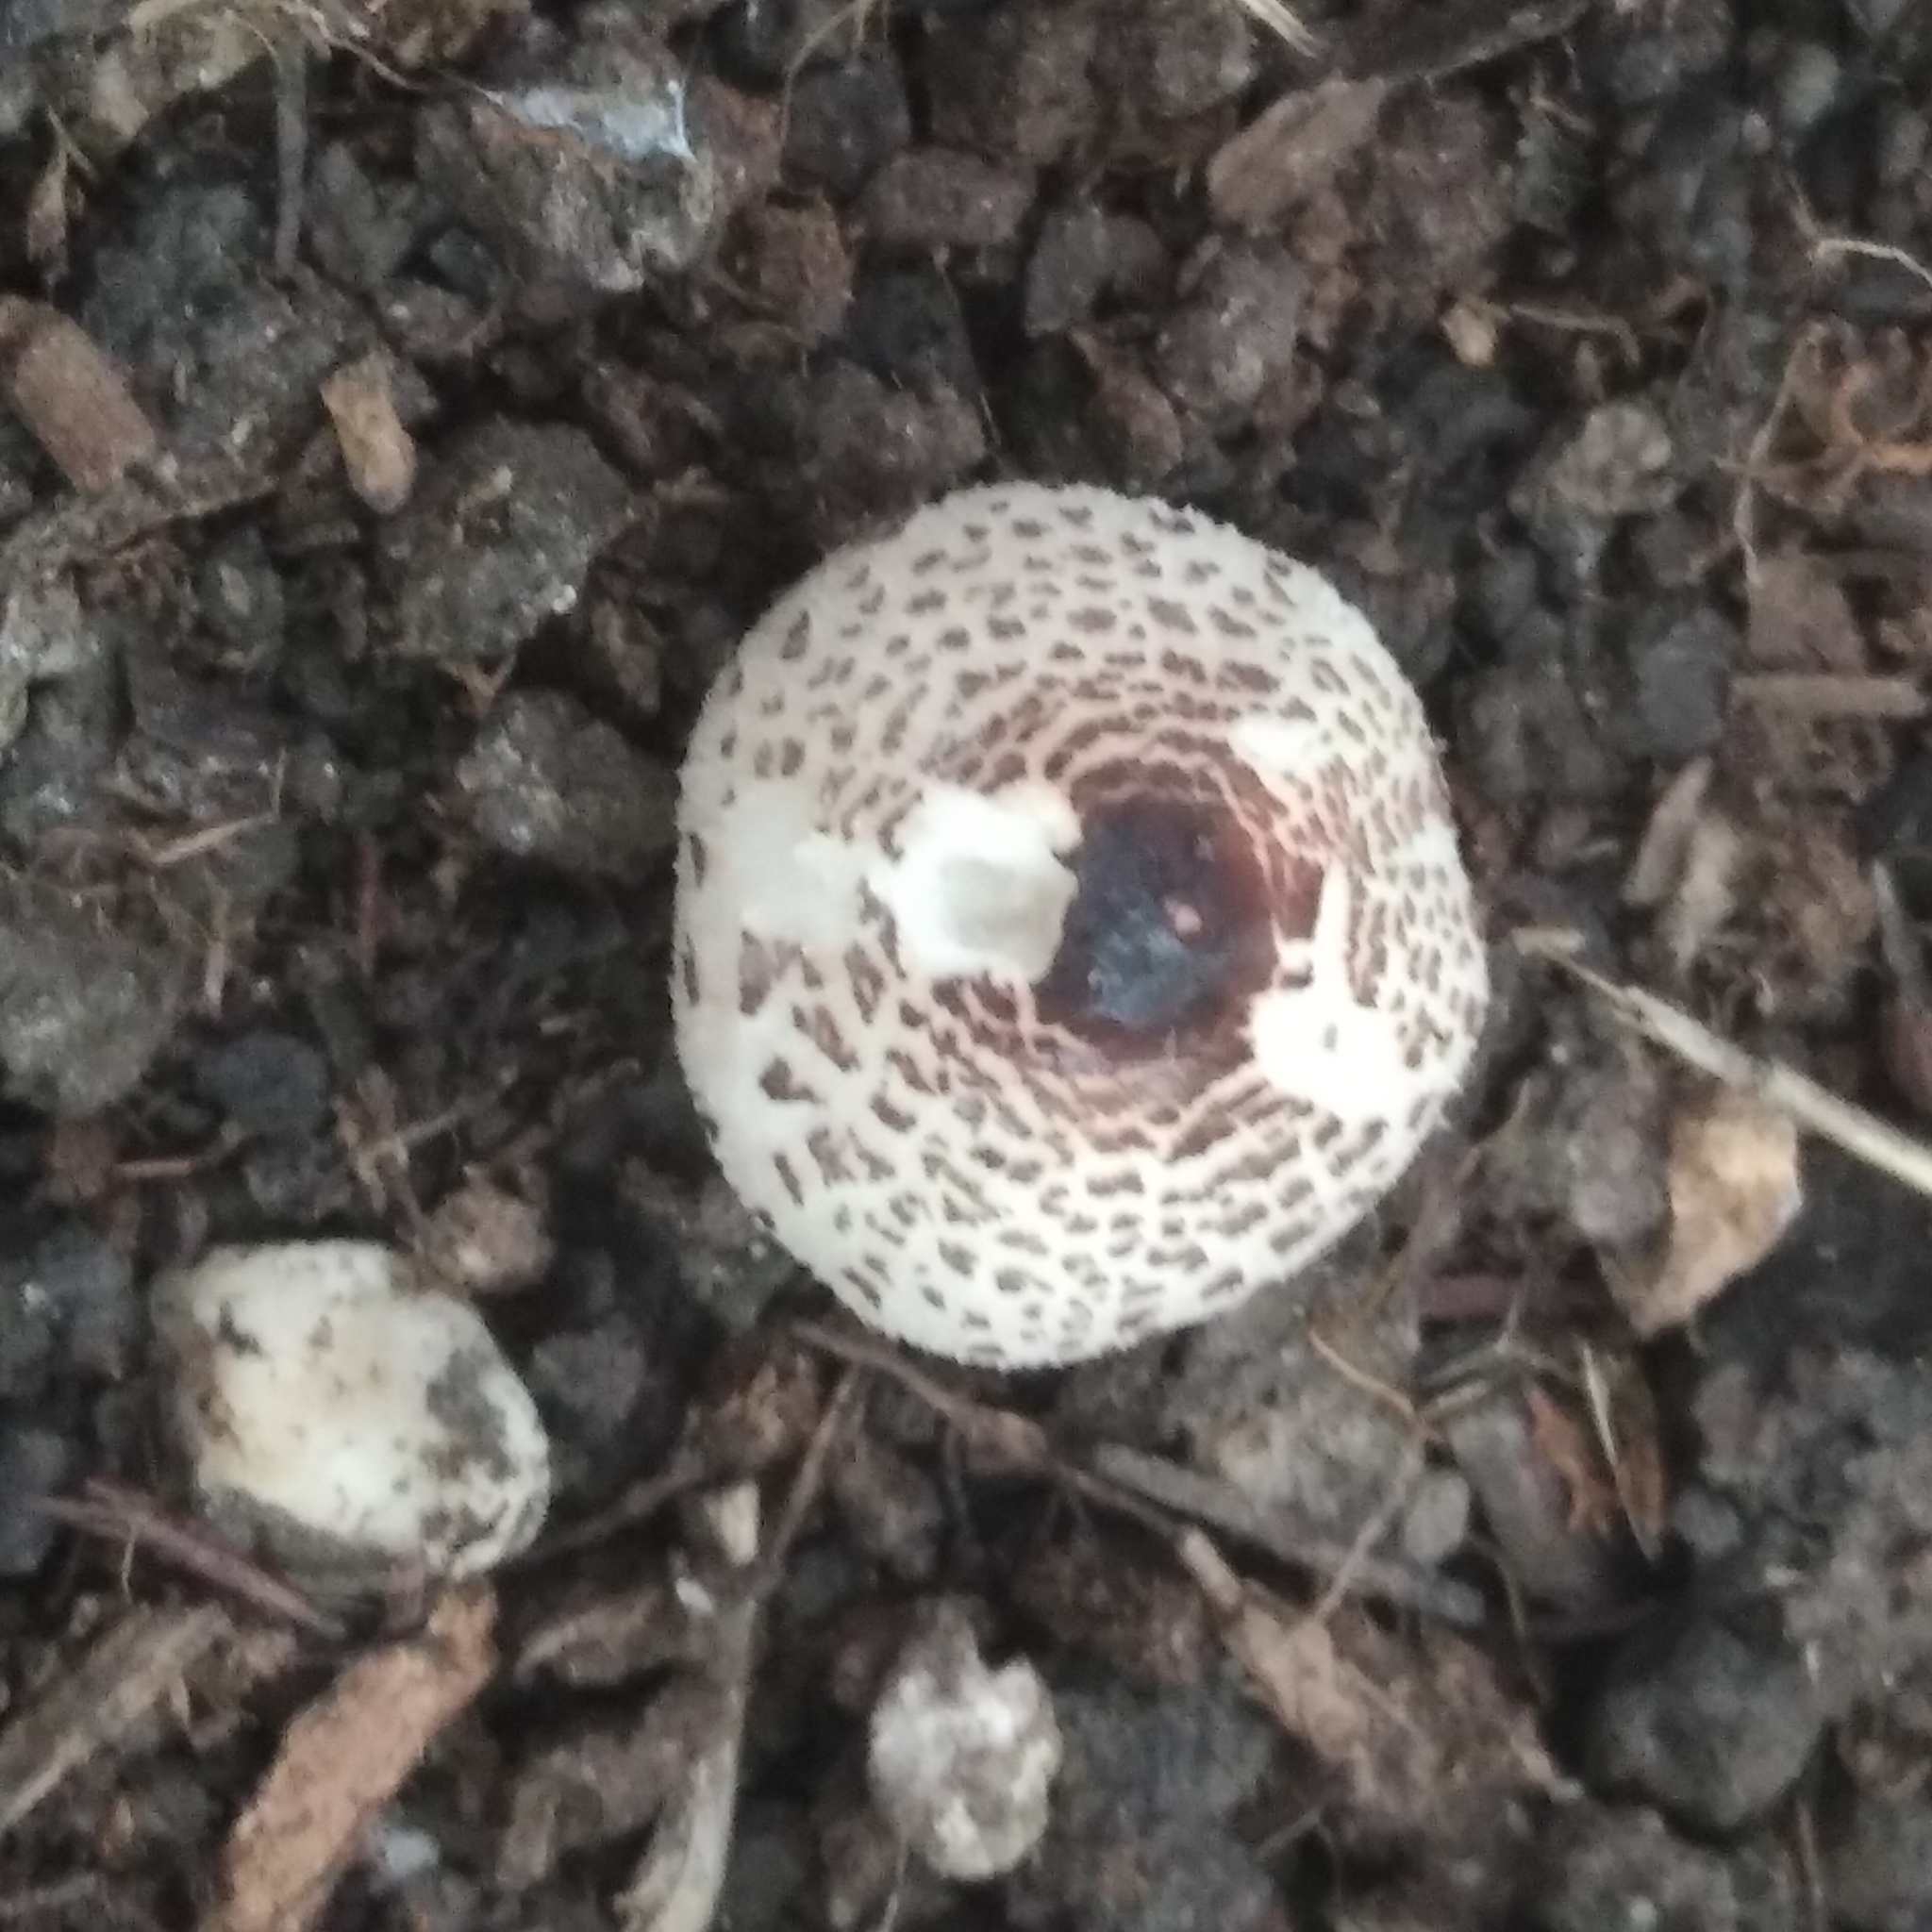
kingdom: Fungi
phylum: Basidiomycota
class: Agaricomycetes
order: Agaricales
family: Agaricaceae
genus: Lepiota
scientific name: Lepiota lilacea
